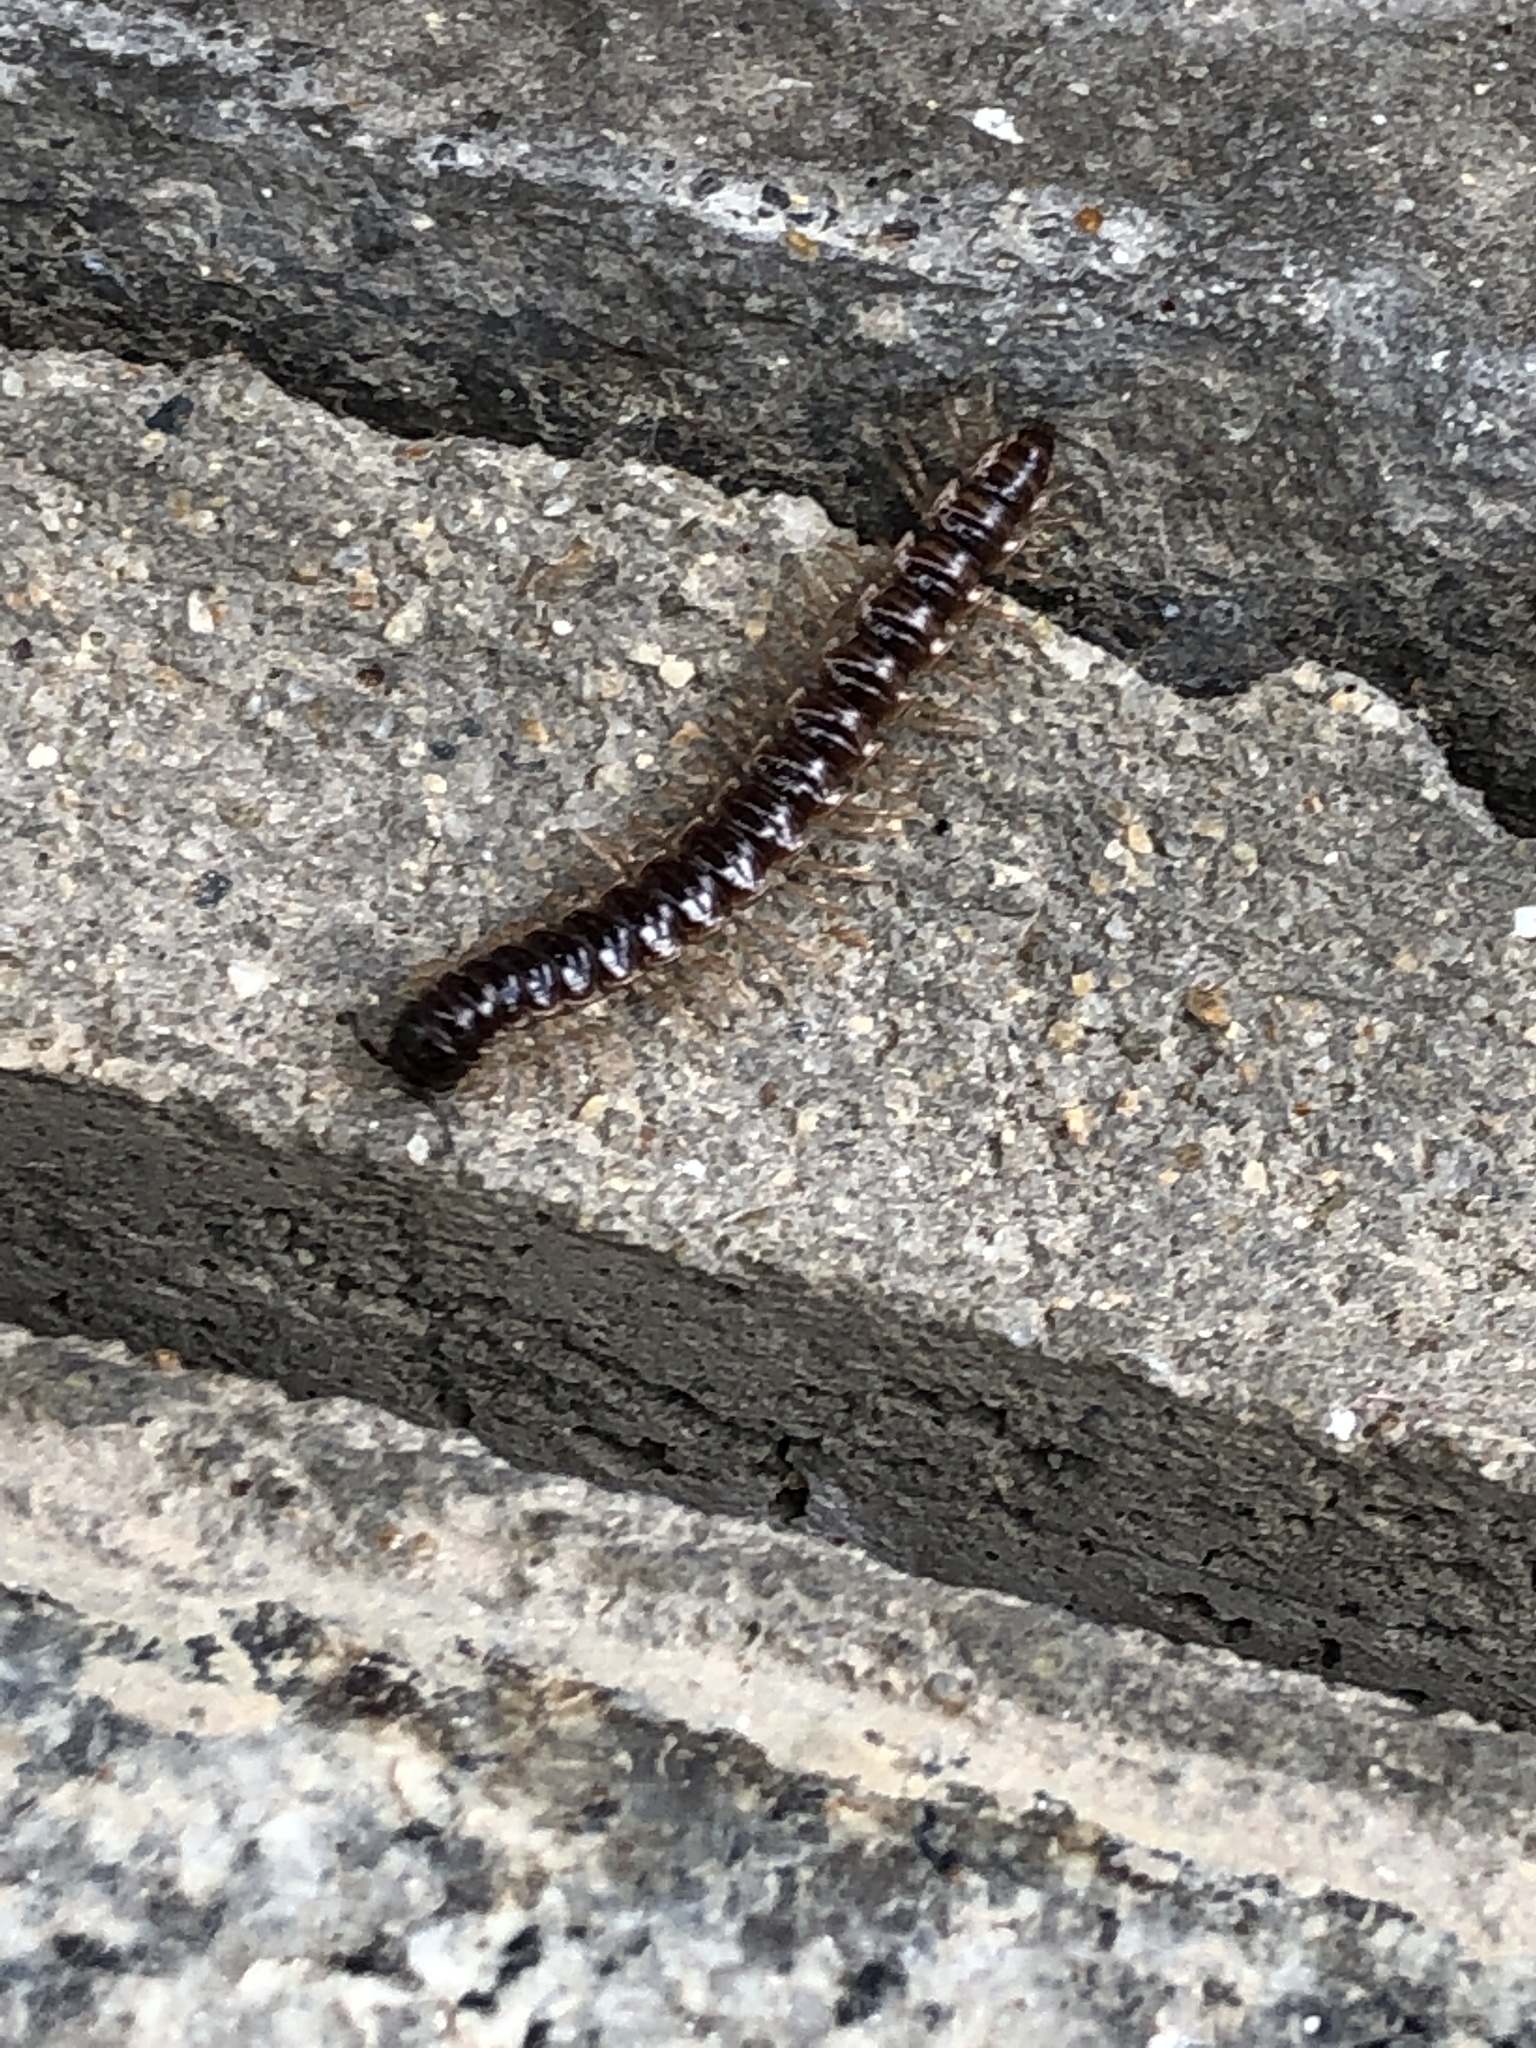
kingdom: Animalia
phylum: Arthropoda
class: Diplopoda
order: Polydesmida
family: Paradoxosomatidae
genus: Oxidus
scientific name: Oxidus gracilis
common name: Greenhouse millipede
